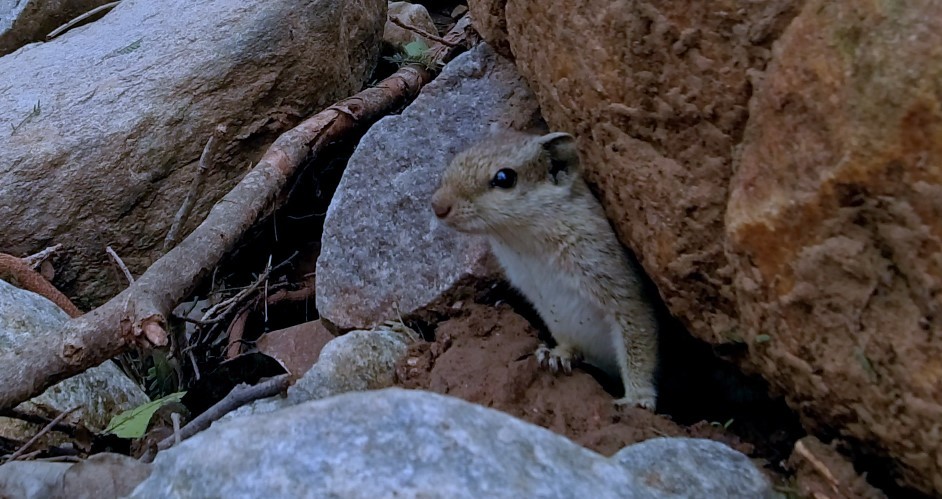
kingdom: Animalia
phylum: Chordata
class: Mammalia
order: Rodentia
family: Sciuridae
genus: Funambulus
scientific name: Funambulus pennantii
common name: Northern palm squirrel
